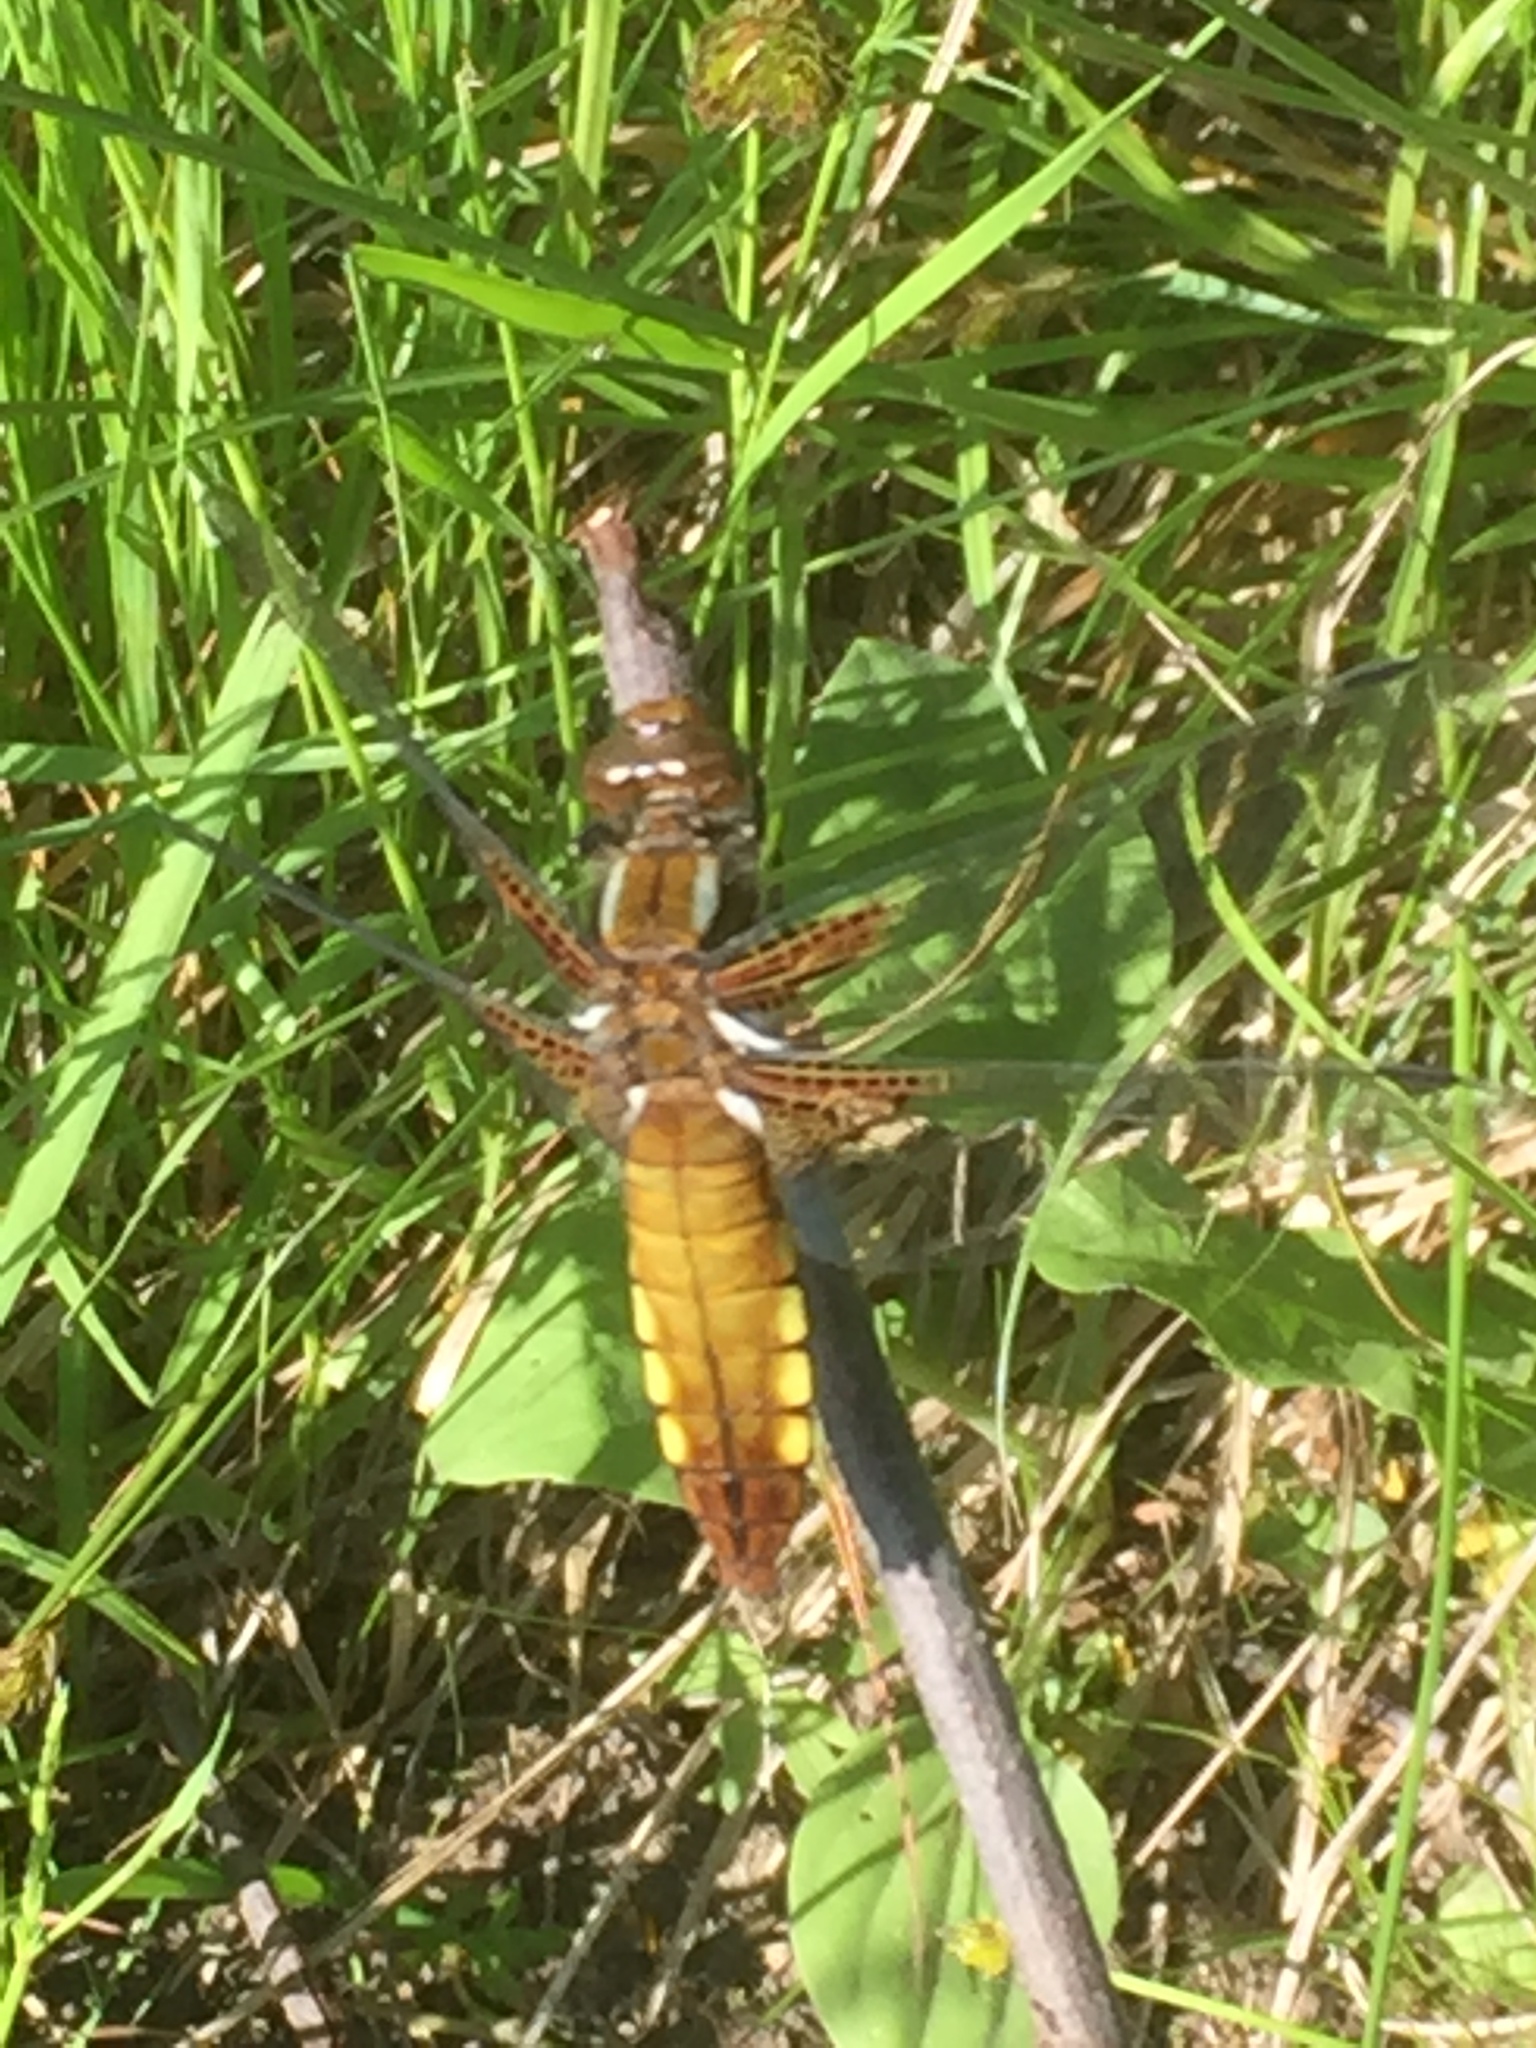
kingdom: Animalia
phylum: Arthropoda
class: Insecta
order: Odonata
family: Libellulidae
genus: Libellula
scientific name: Libellula depressa
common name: Broad-bodied chaser
